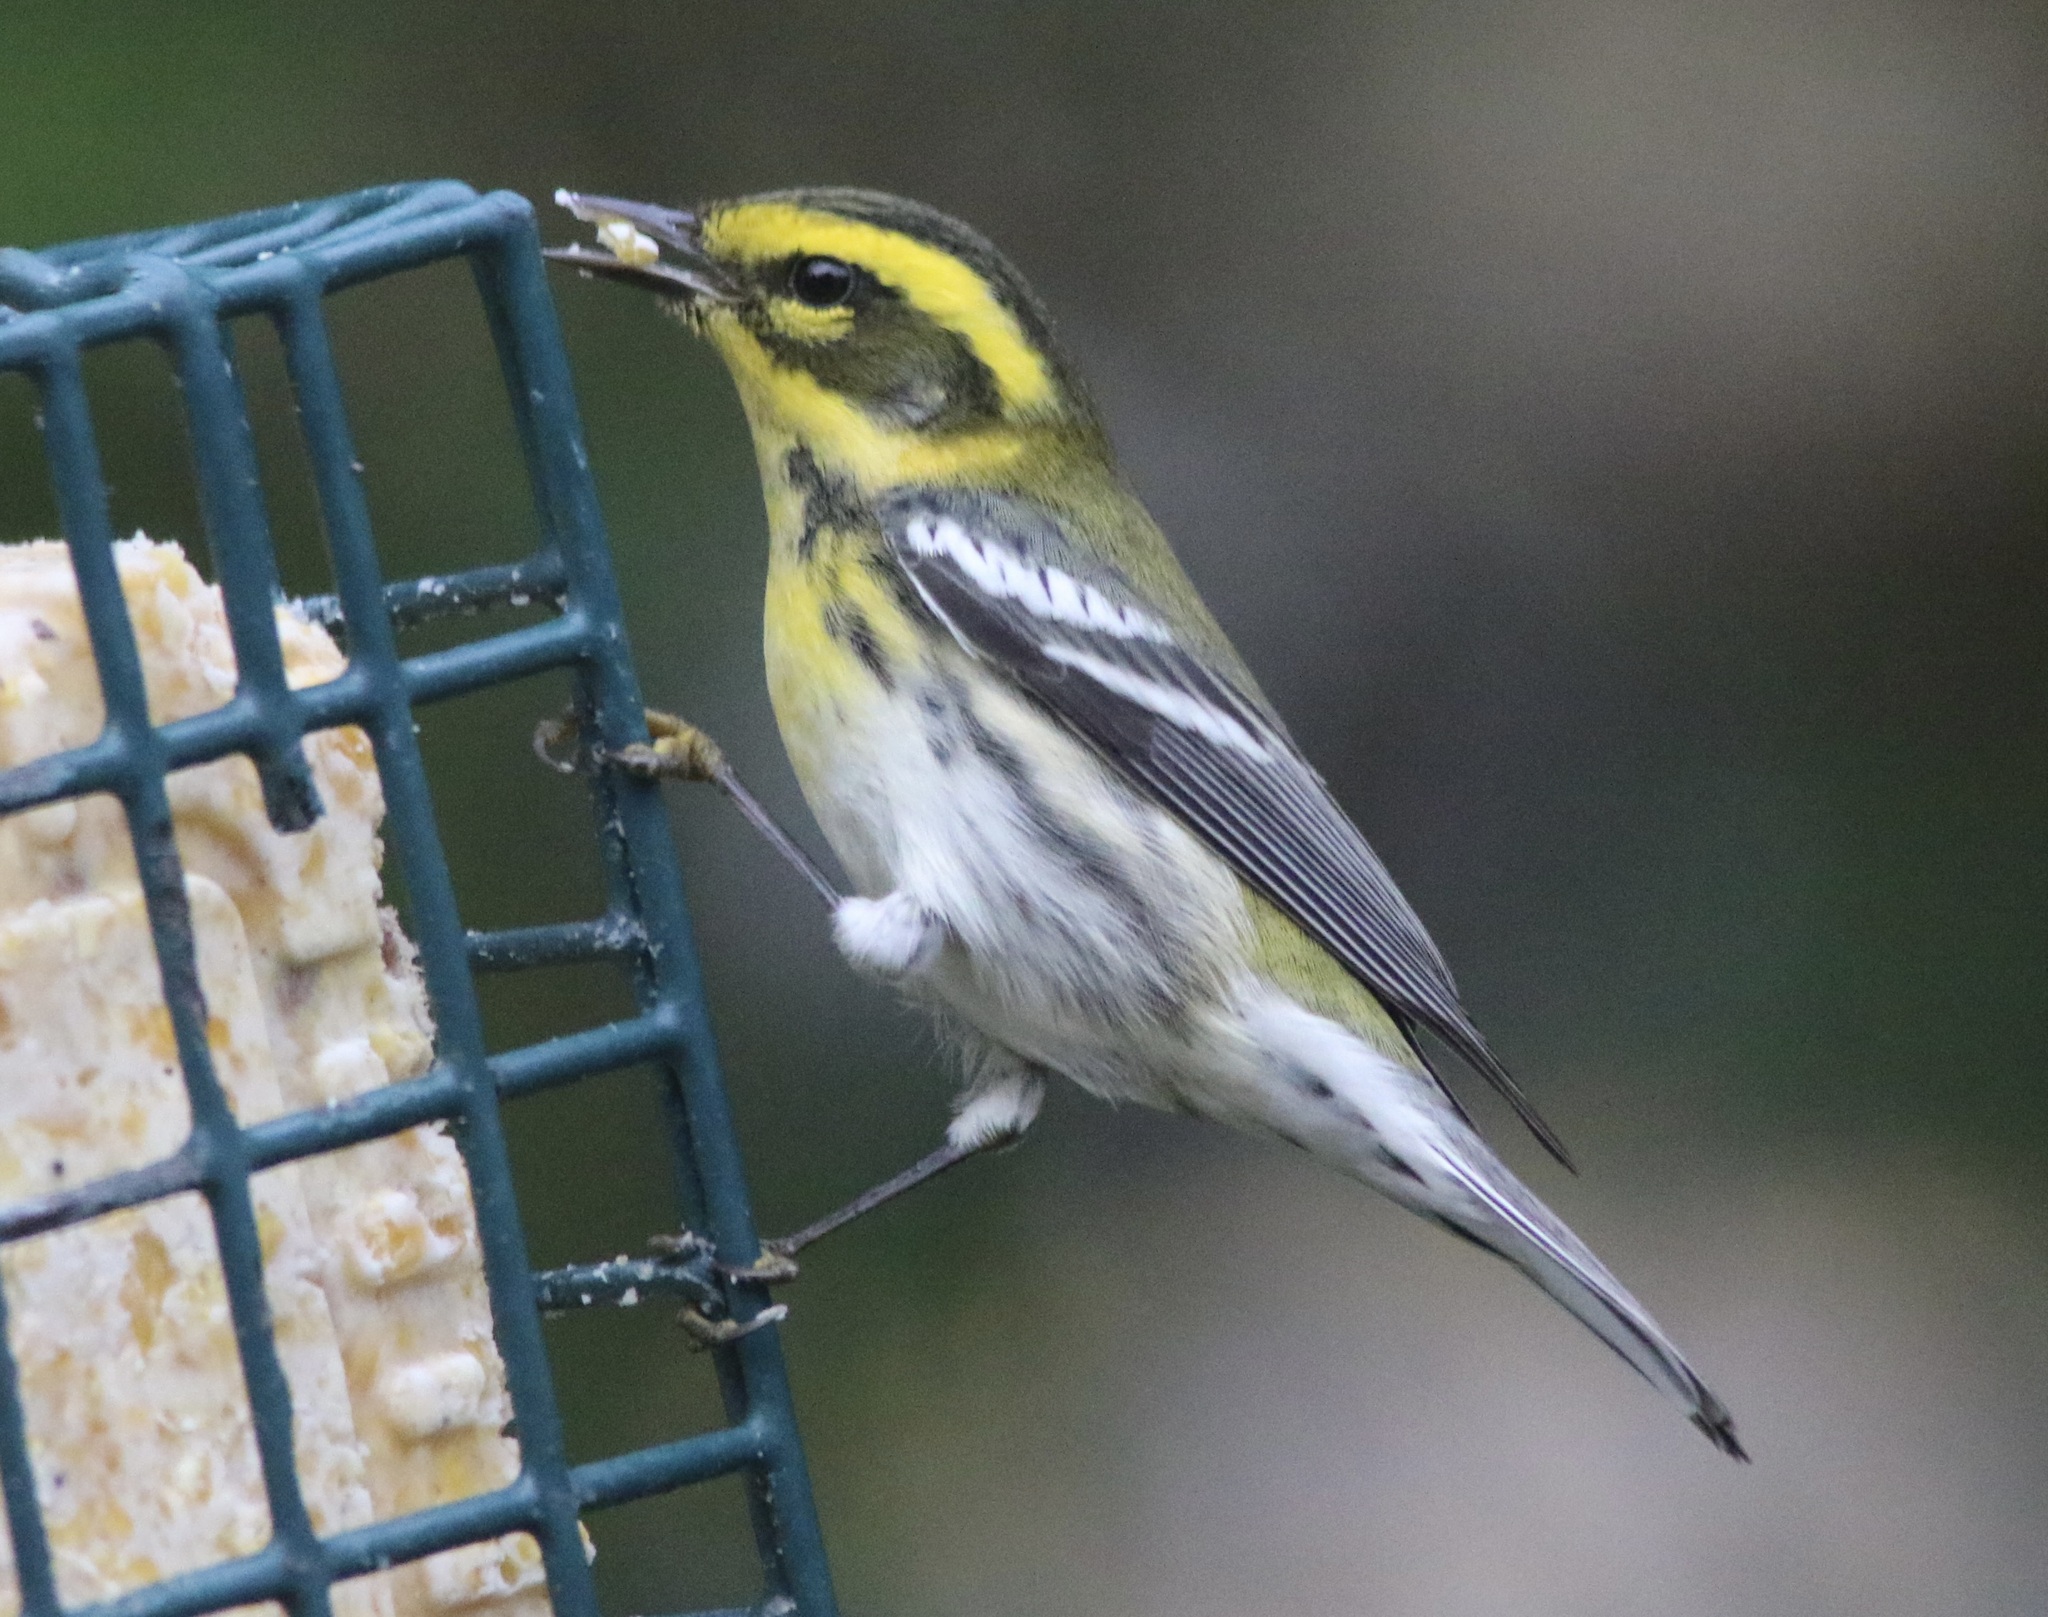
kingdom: Animalia
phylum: Chordata
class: Aves
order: Passeriformes
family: Parulidae
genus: Setophaga
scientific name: Setophaga townsendi
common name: Townsend's warbler
